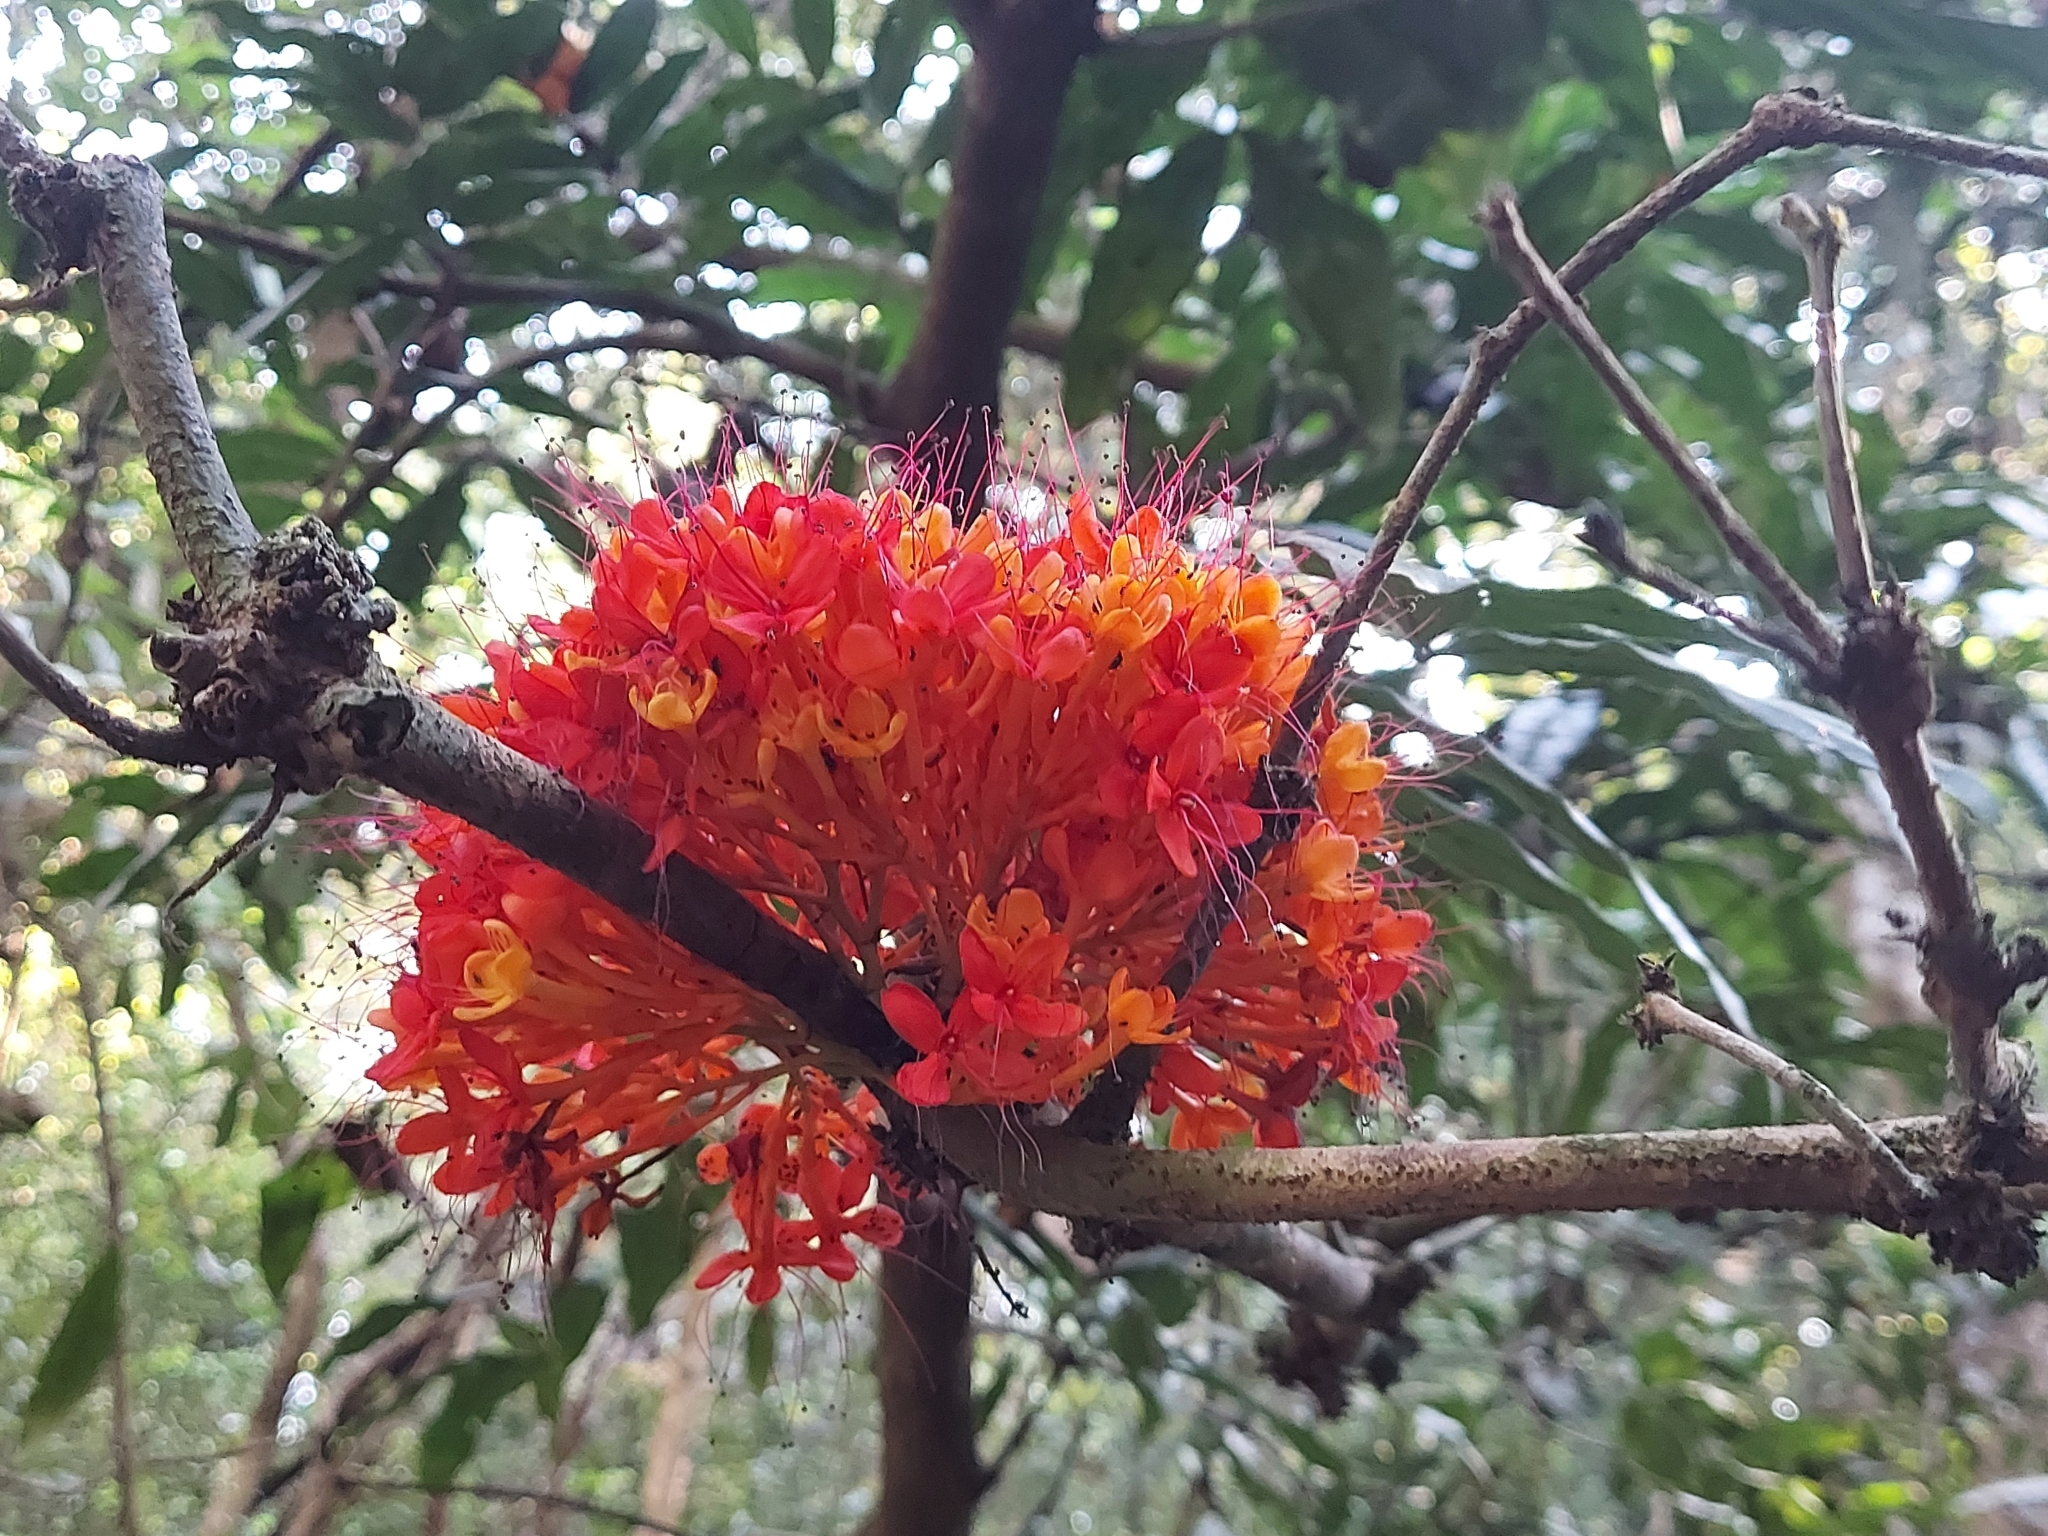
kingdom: Plantae
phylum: Tracheophyta
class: Magnoliopsida
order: Fabales
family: Fabaceae
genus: Saraca
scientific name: Saraca asoca
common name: Asoka-tree
